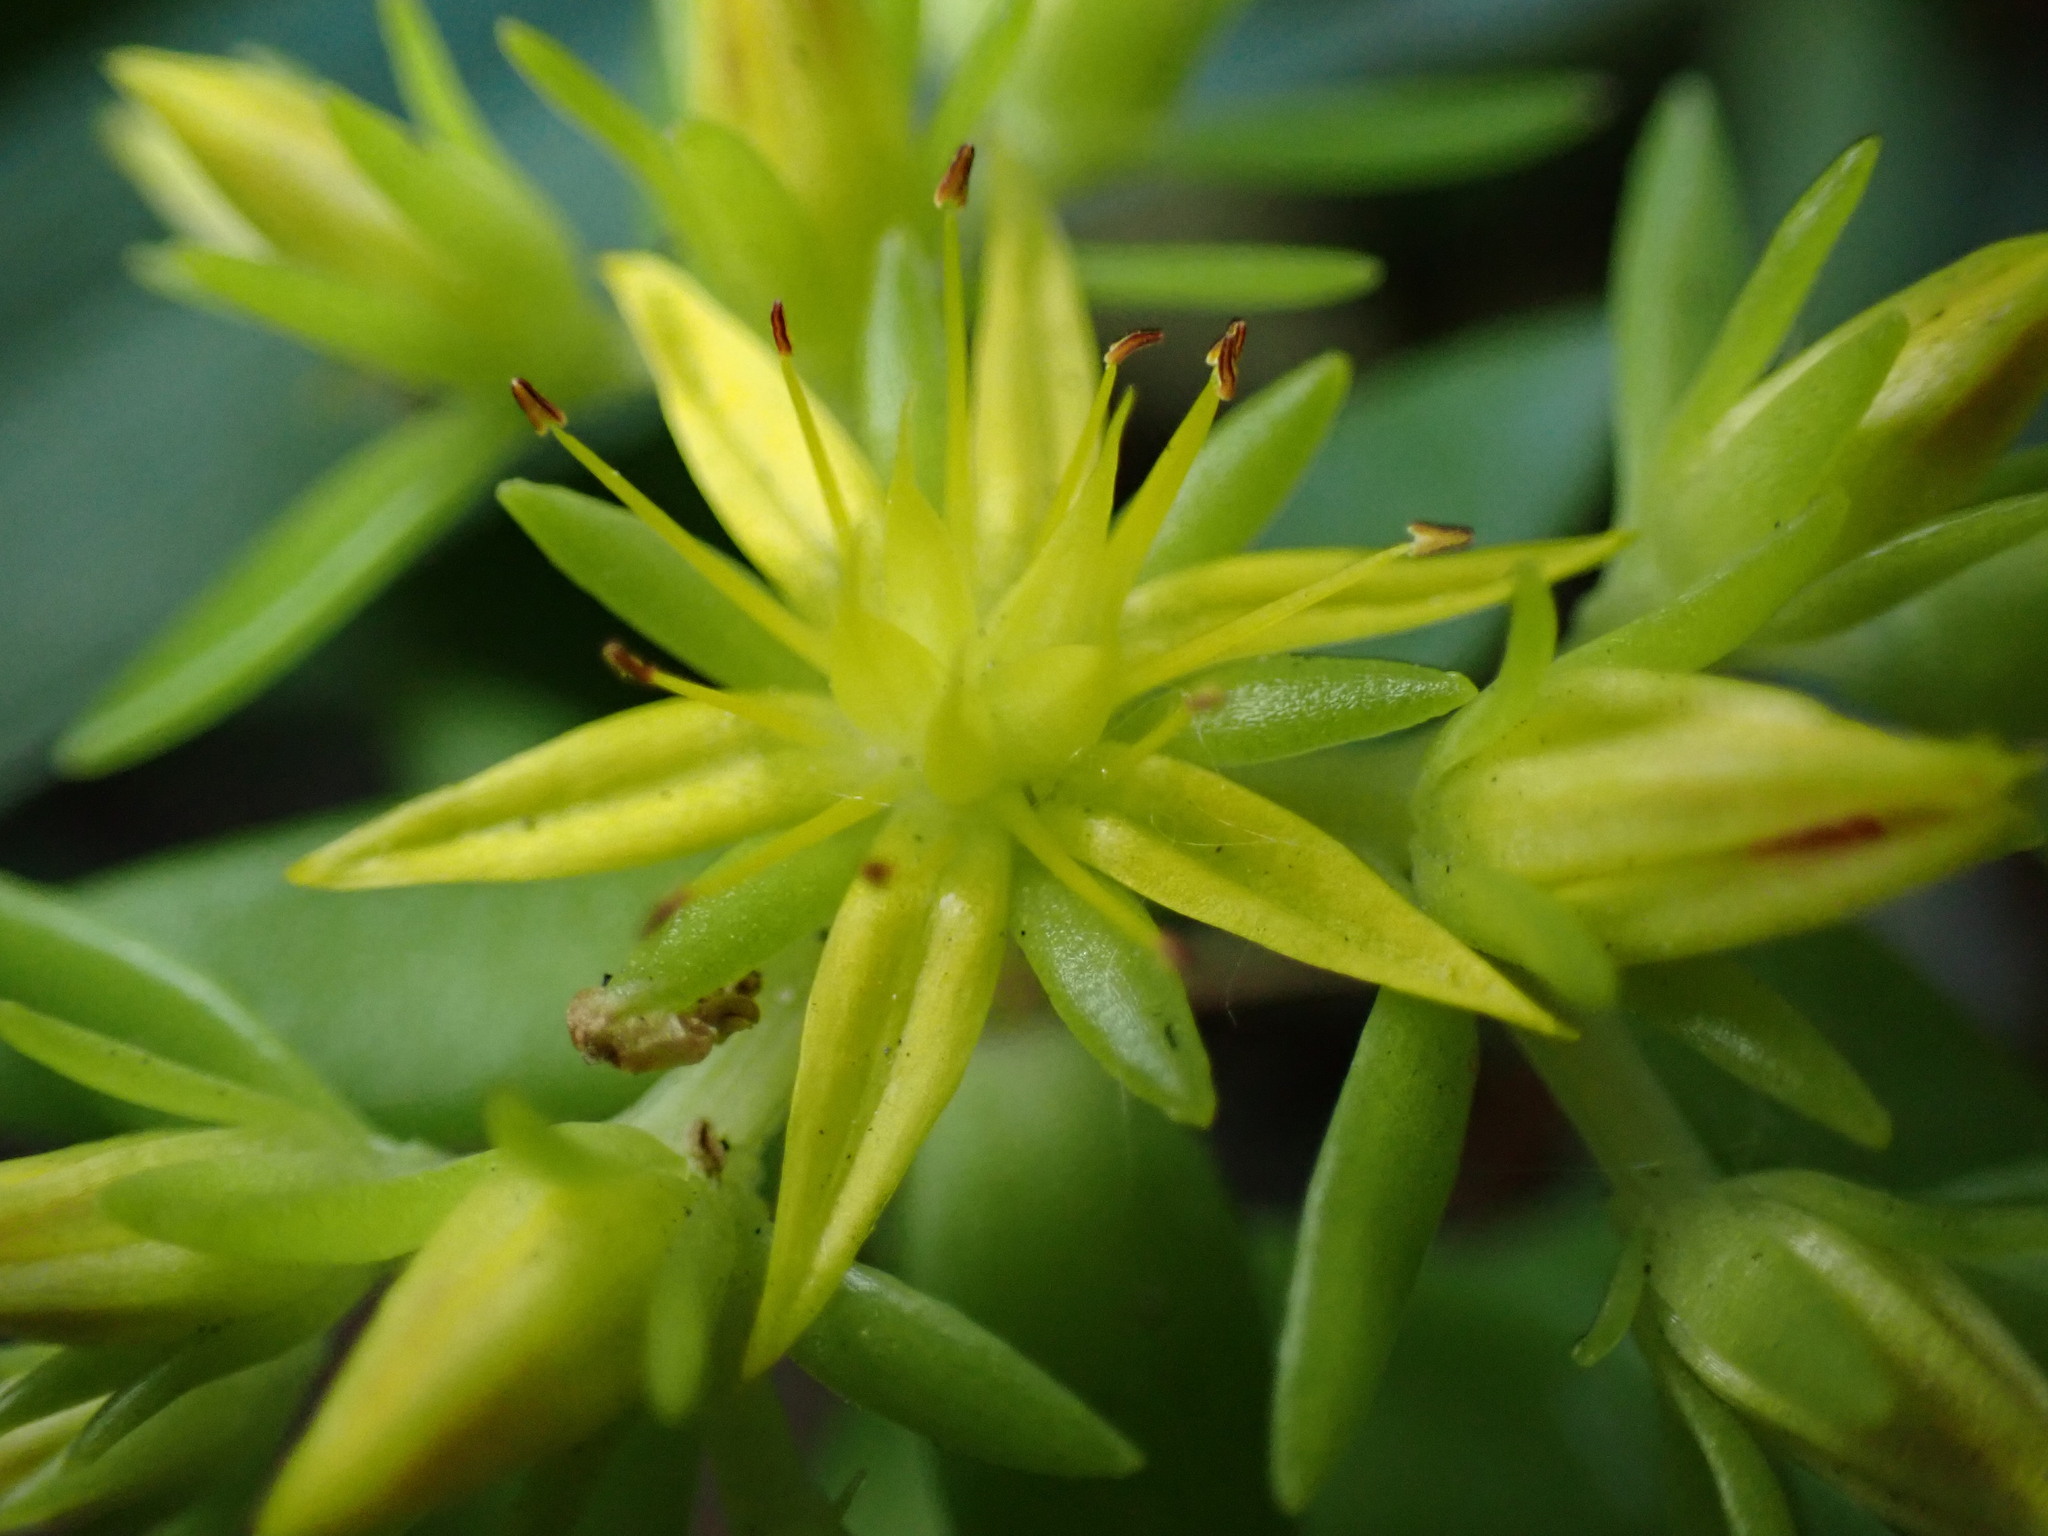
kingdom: Plantae
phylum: Tracheophyta
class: Magnoliopsida
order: Saxifragales
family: Crassulaceae
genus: Sedum
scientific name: Sedum sarmentosum
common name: Stringy stonecrop
